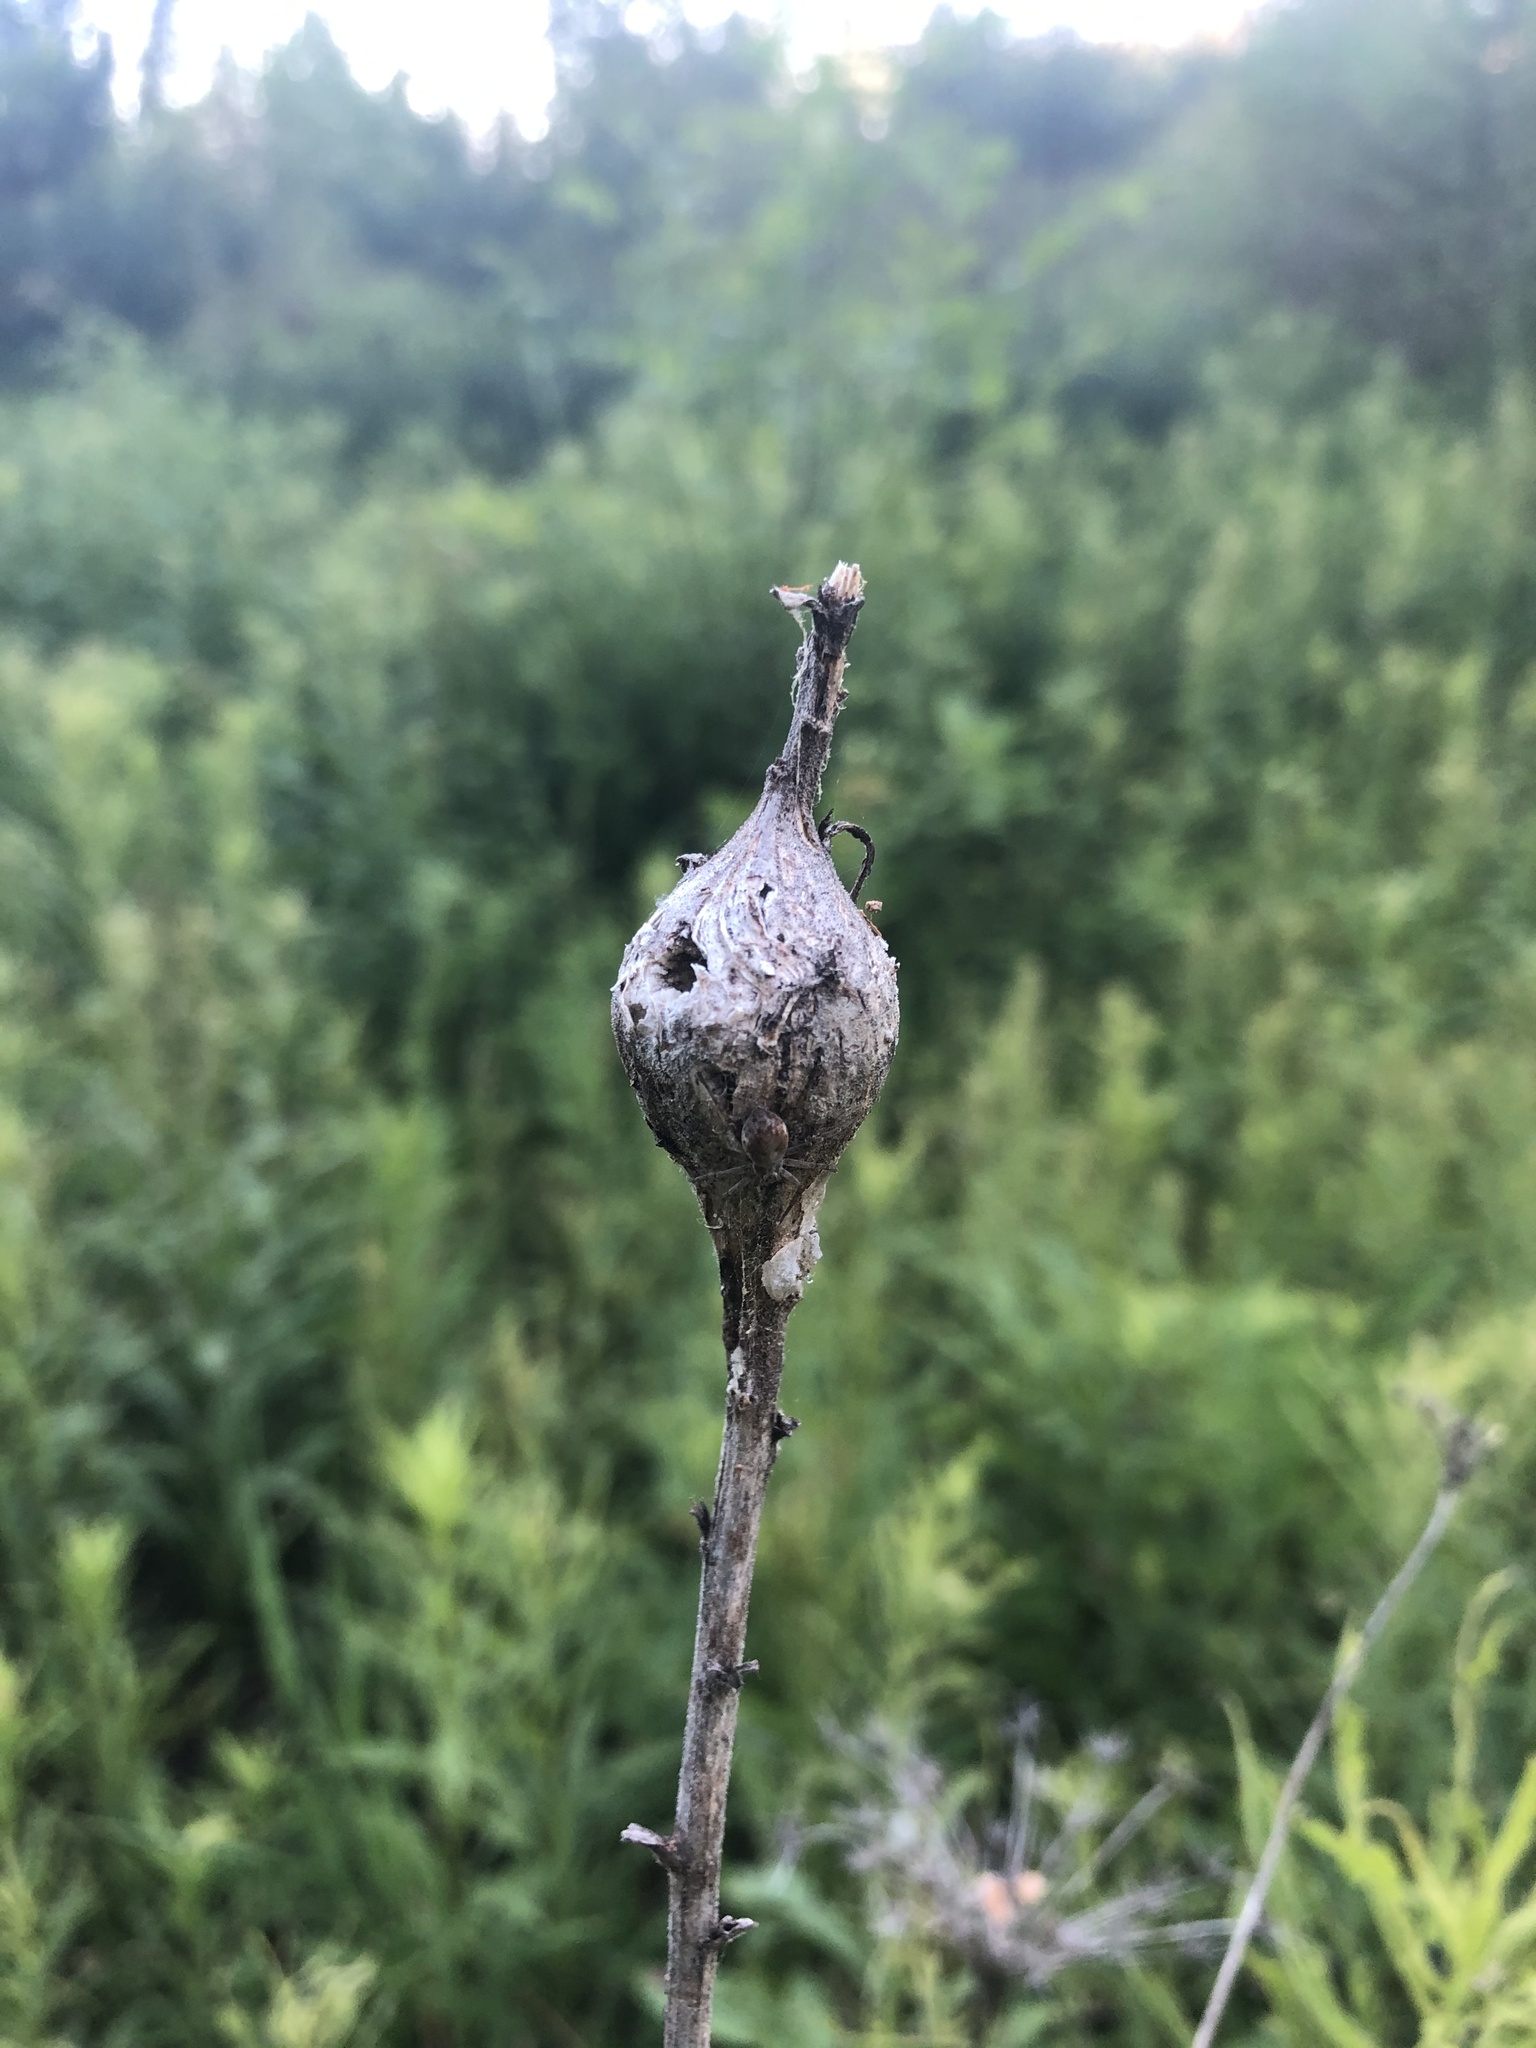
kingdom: Animalia
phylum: Arthropoda
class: Insecta
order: Diptera
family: Tephritidae
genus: Eurosta
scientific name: Eurosta solidaginis
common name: Goldenrod gall fly
